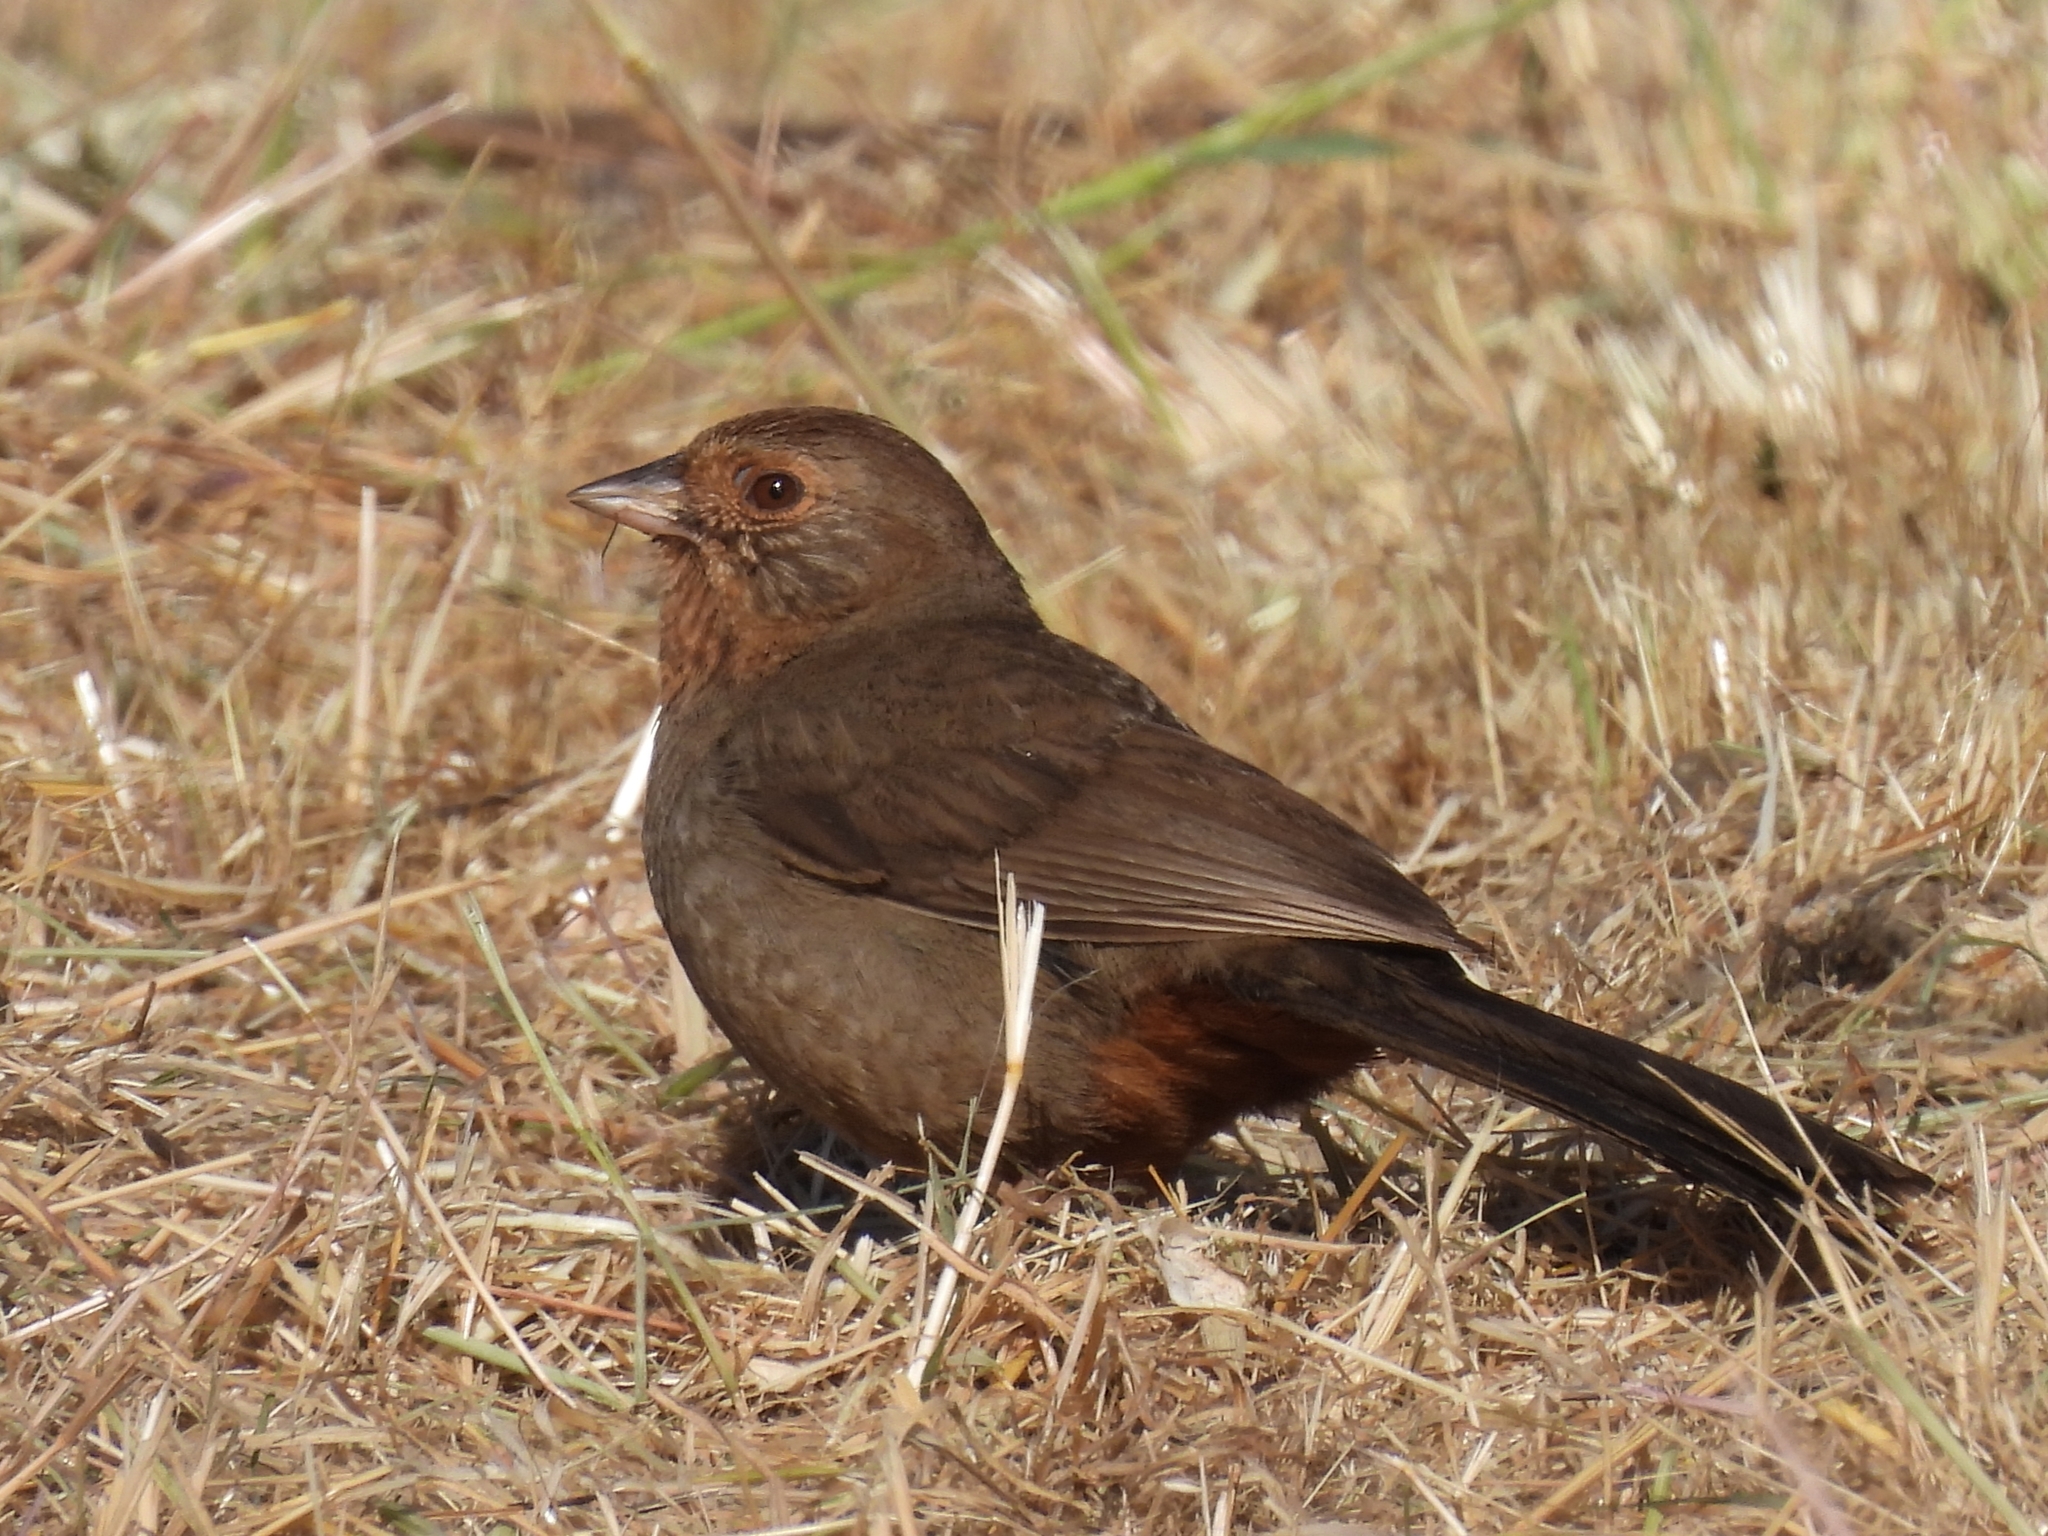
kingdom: Animalia
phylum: Chordata
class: Aves
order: Passeriformes
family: Passerellidae
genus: Melozone
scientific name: Melozone crissalis
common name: California towhee
